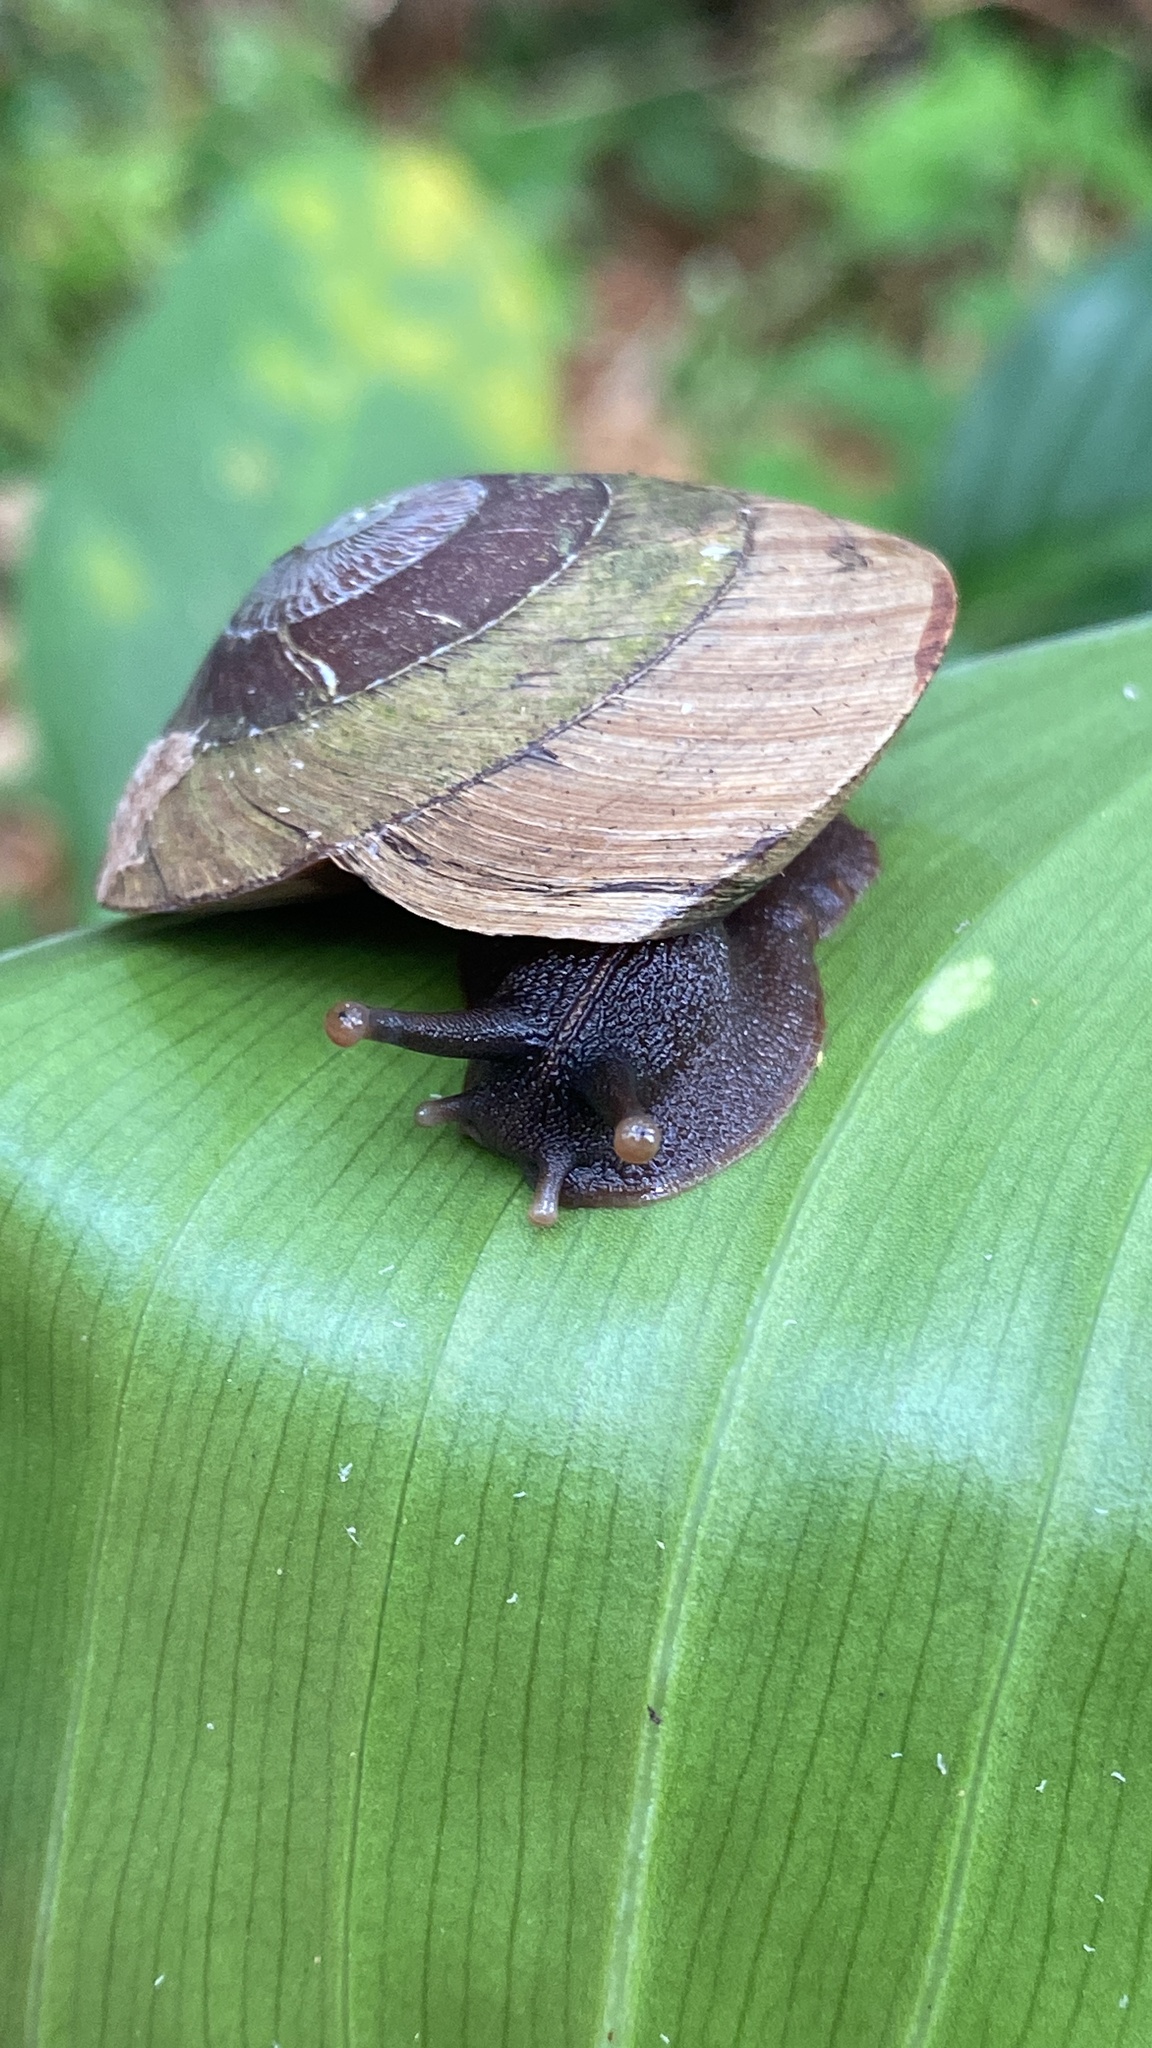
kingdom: Animalia
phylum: Mollusca
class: Gastropoda
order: Stylommatophora
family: Solaropsidae
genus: Caracolus
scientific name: Caracolus carocolla
